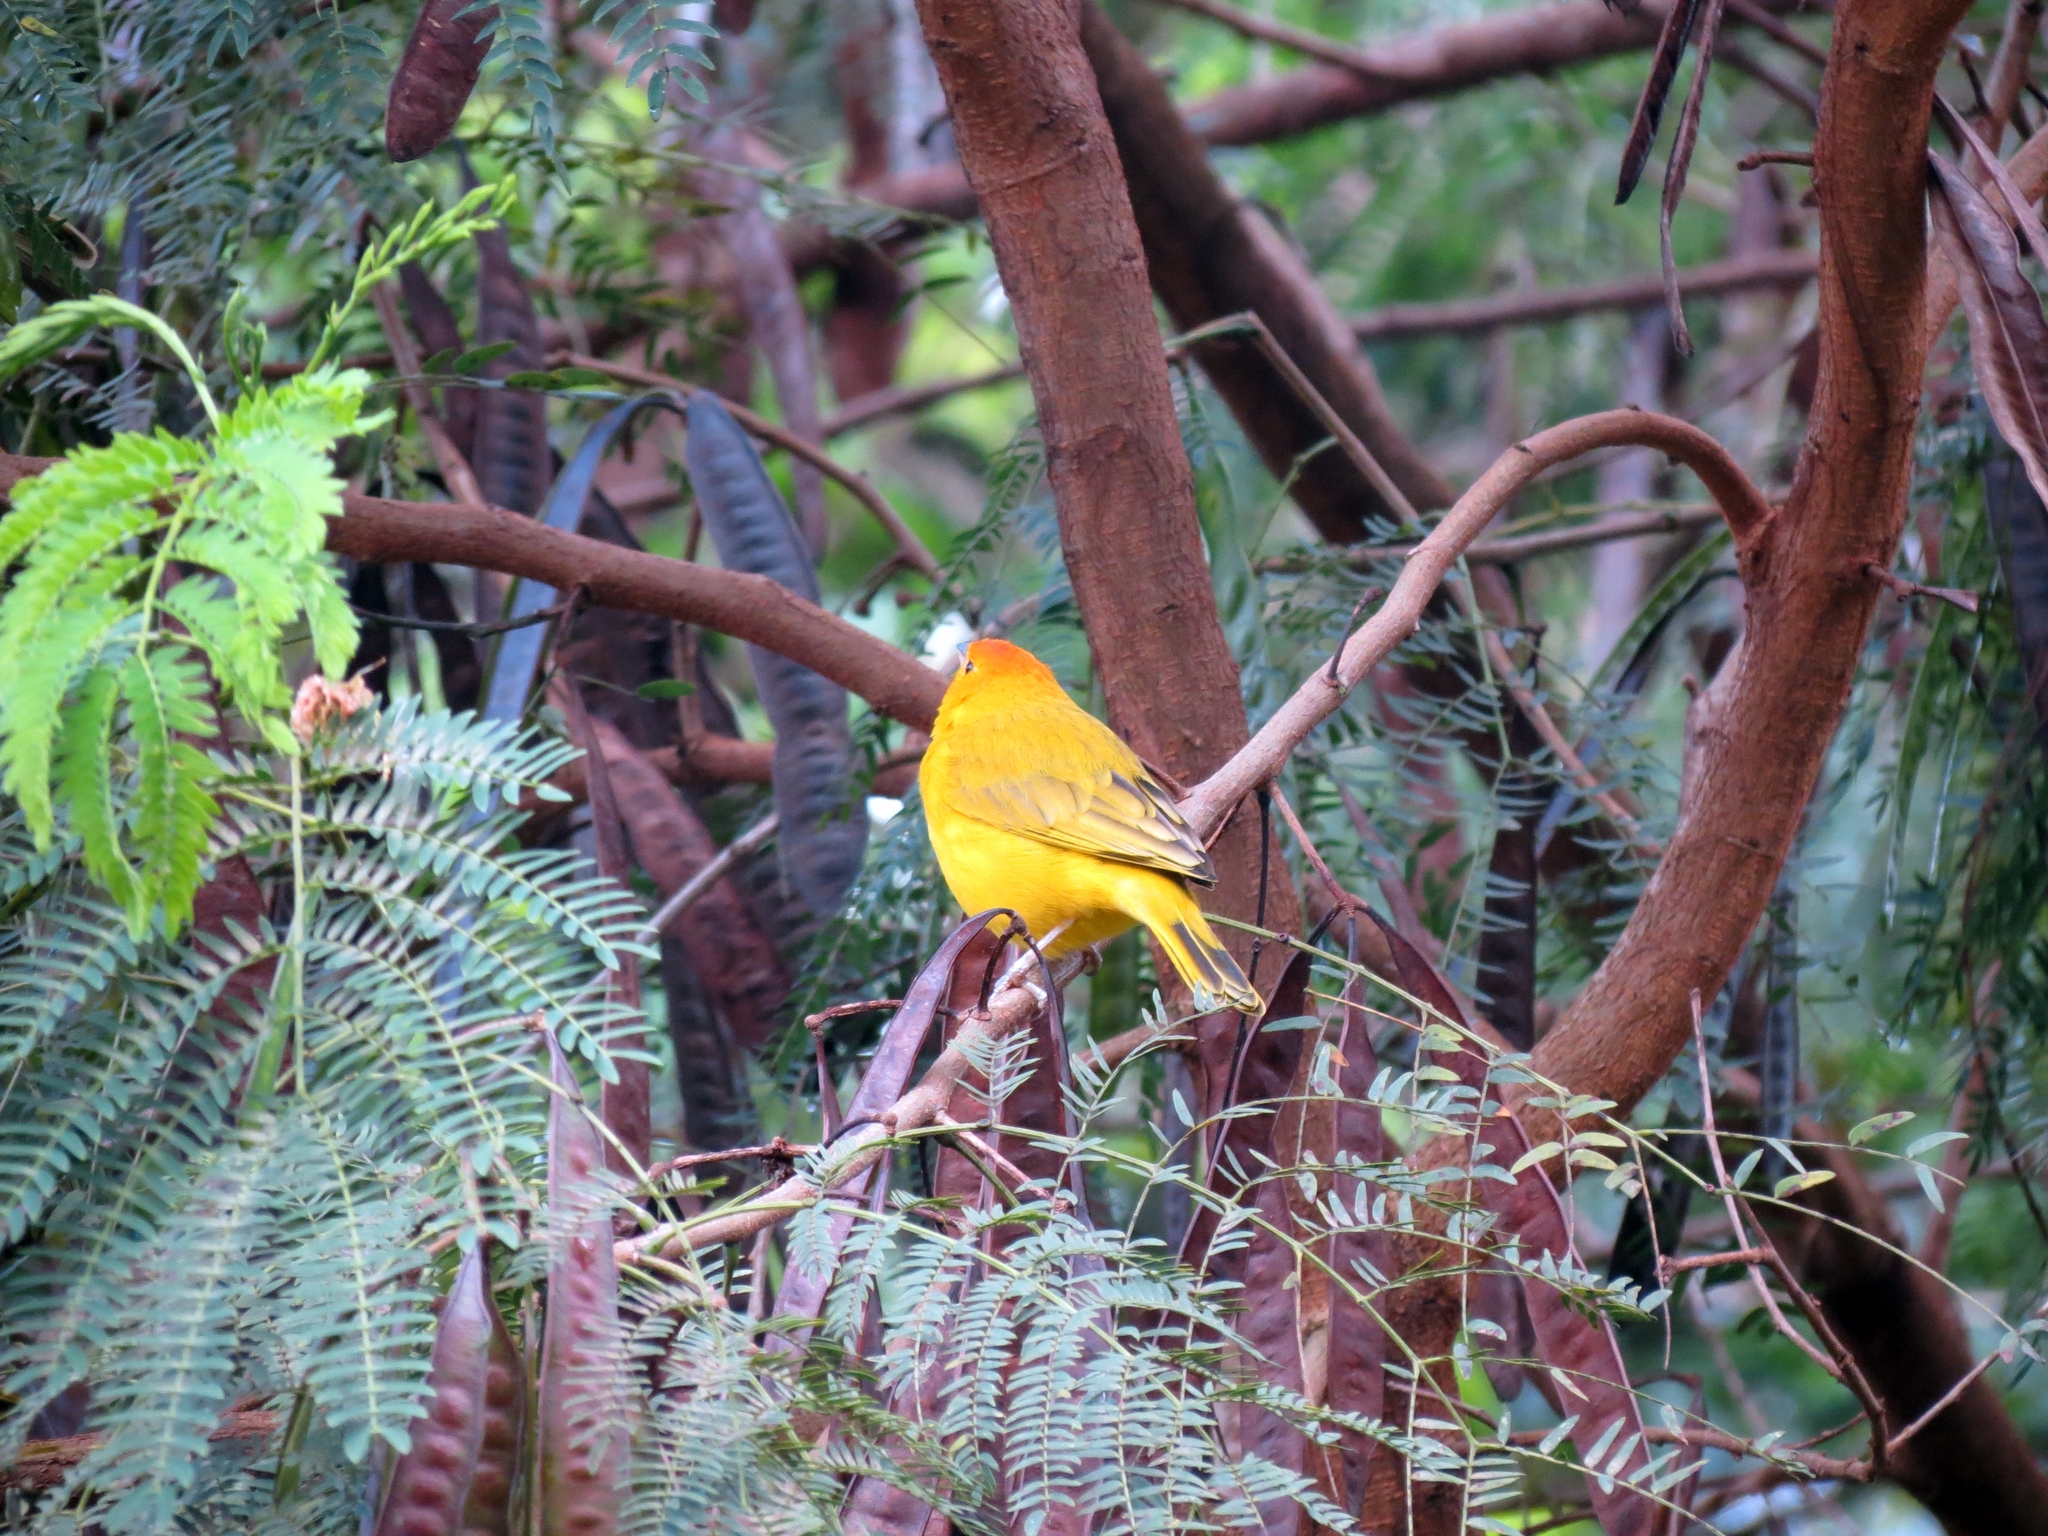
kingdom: Animalia
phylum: Chordata
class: Aves
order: Passeriformes
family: Thraupidae
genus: Sicalis
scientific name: Sicalis flaveola
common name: Saffron finch
